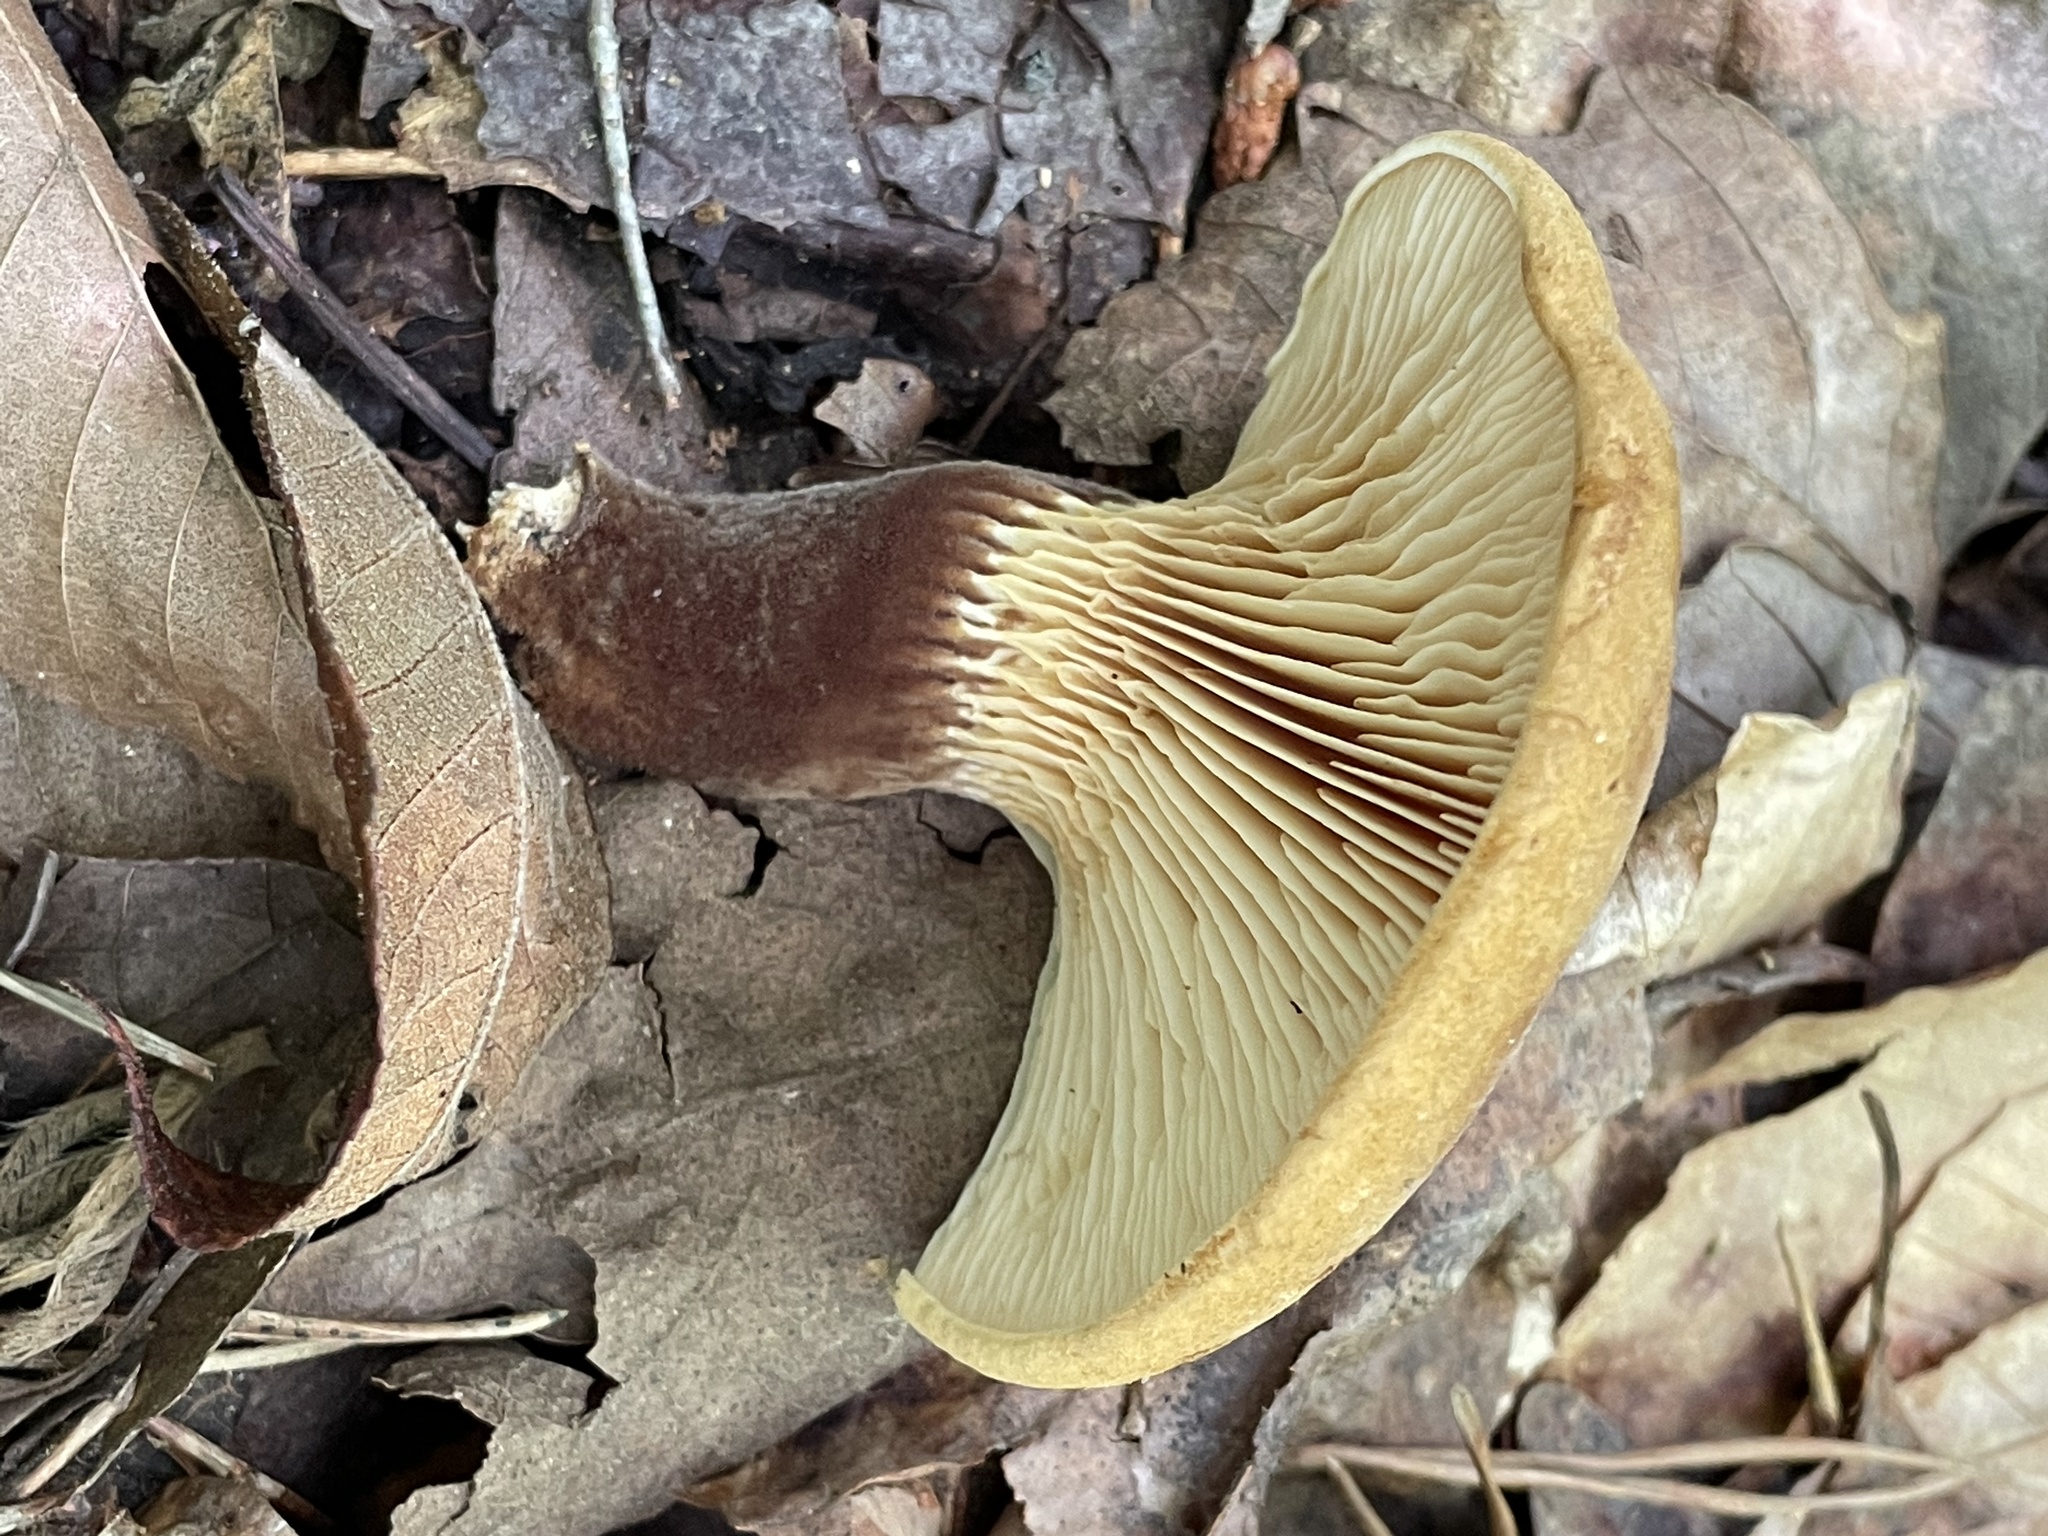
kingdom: Fungi
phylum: Basidiomycota
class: Agaricomycetes
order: Boletales
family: Tapinellaceae
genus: Tapinella
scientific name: Tapinella atrotomentosa
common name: Velvet rollrim
